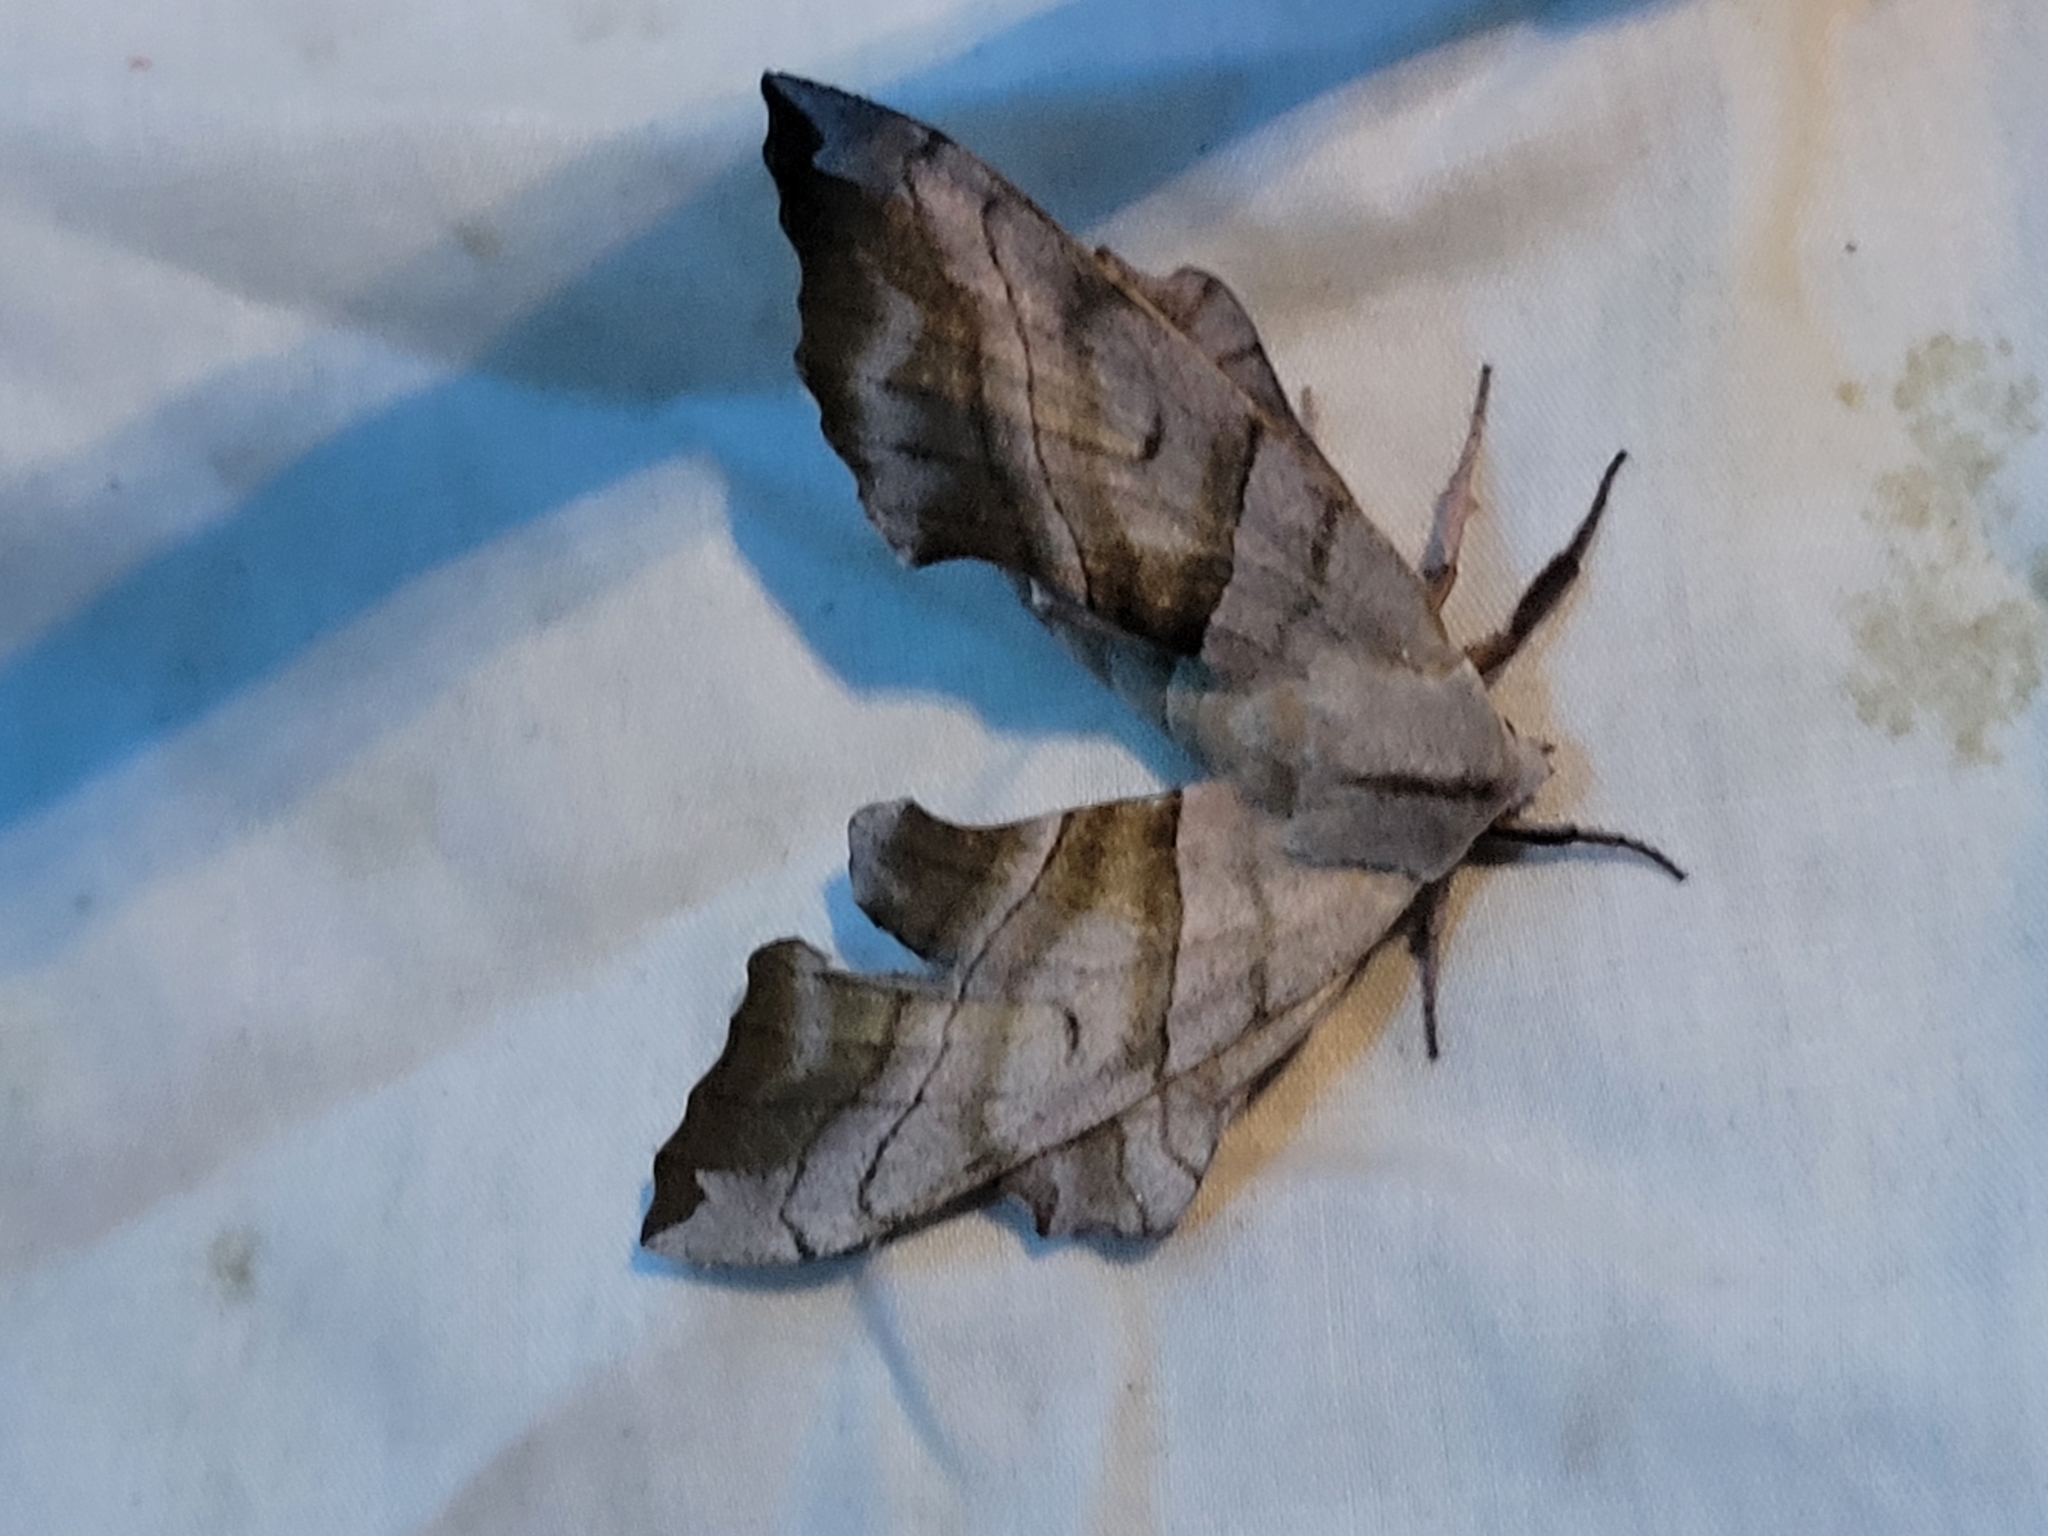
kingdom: Animalia
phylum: Arthropoda
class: Insecta
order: Lepidoptera
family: Sphingidae
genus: Amorpha
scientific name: Amorpha juglandis
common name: Walnut sphinx
